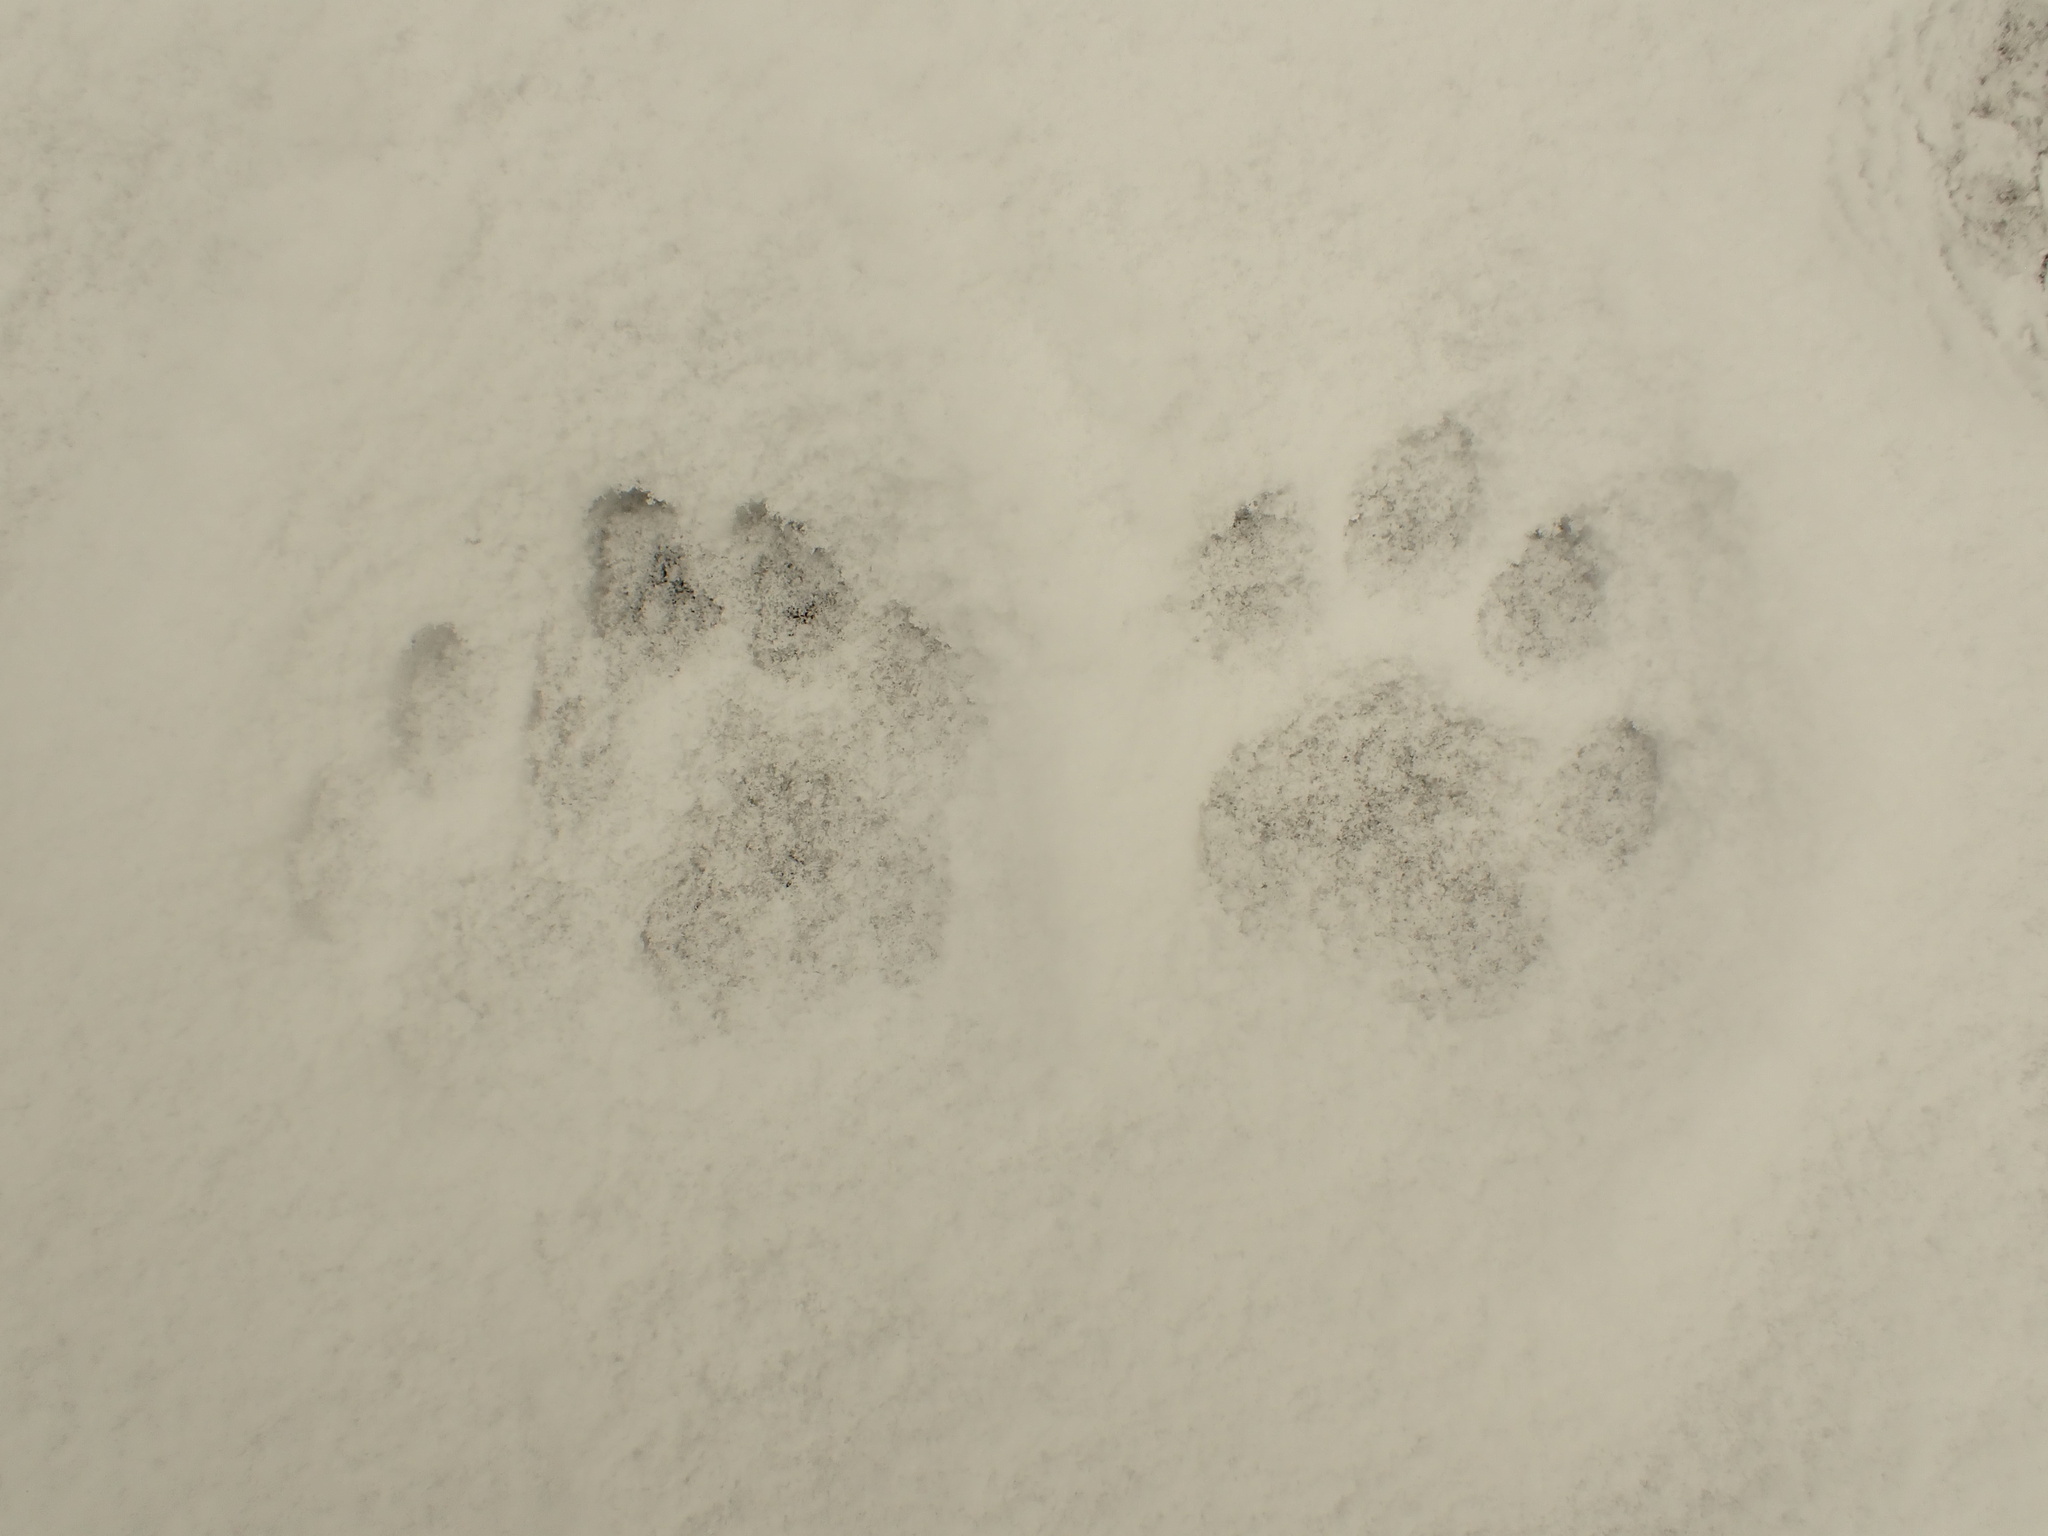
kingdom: Animalia
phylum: Chordata
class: Mammalia
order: Carnivora
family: Felidae
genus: Puma
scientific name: Puma concolor
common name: Puma
